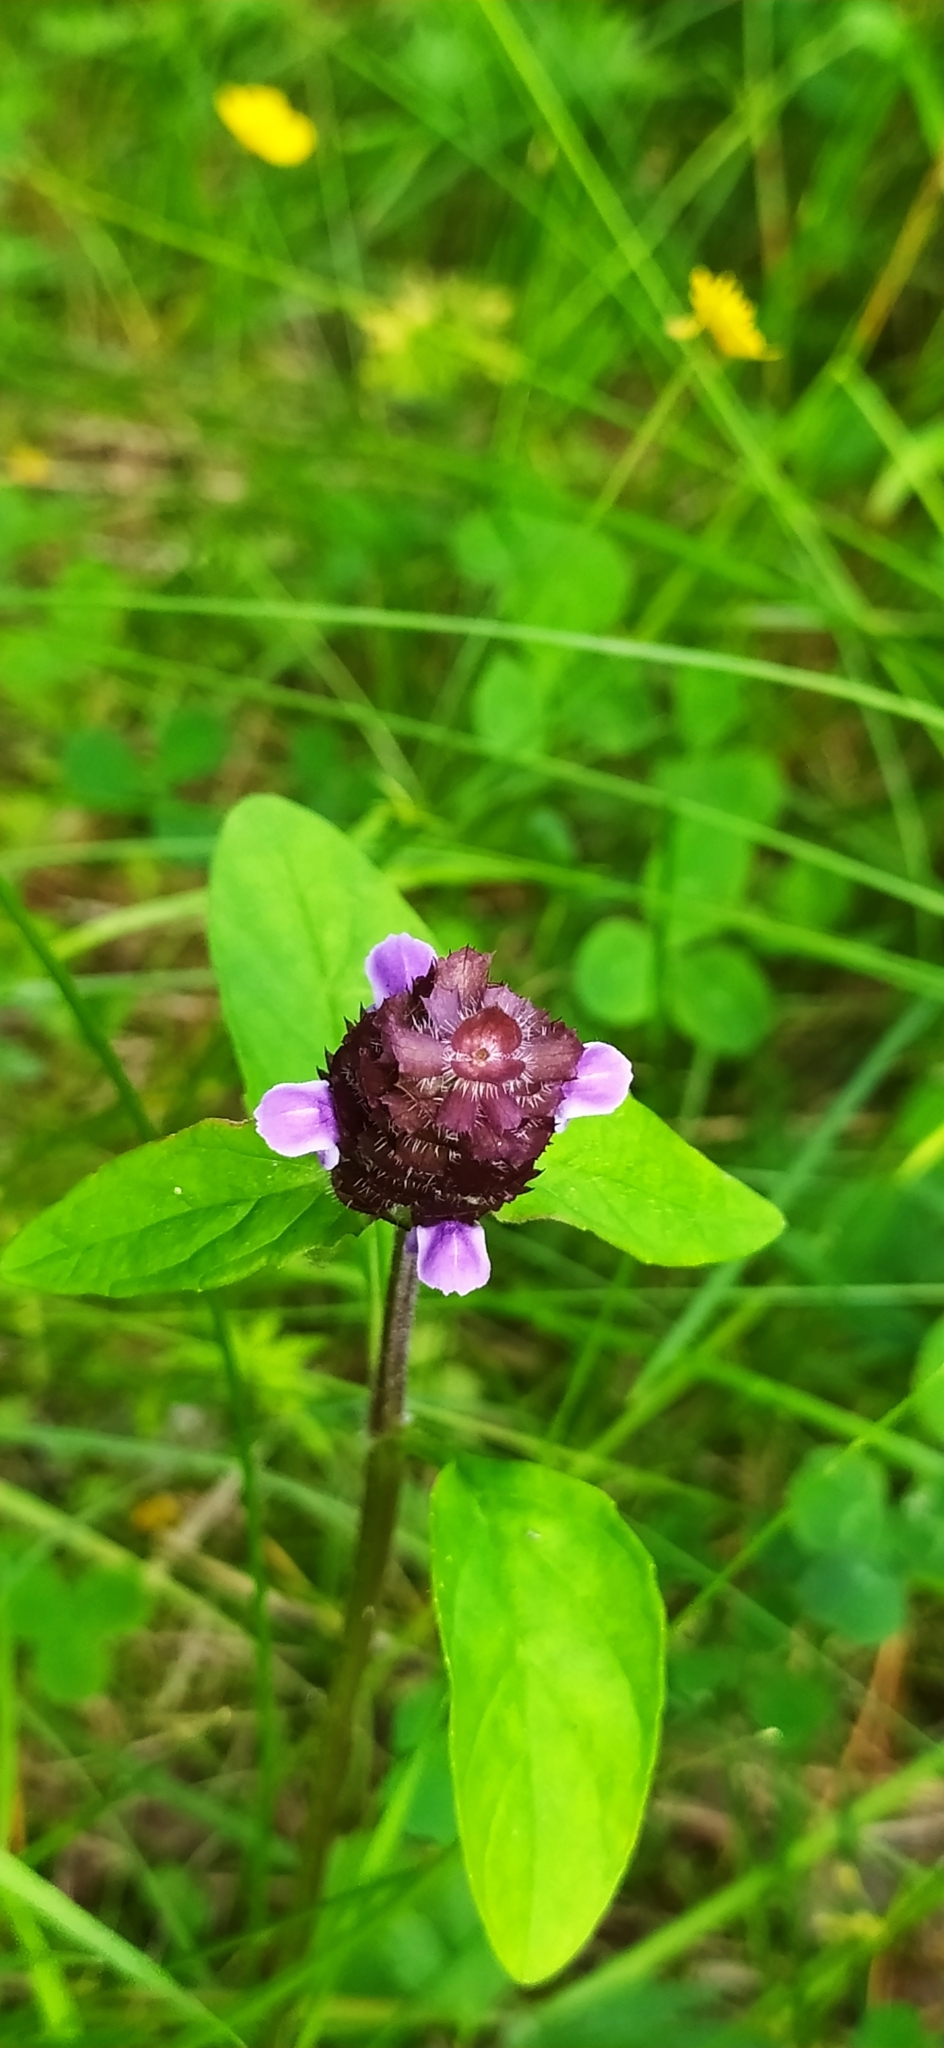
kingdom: Plantae
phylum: Tracheophyta
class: Magnoliopsida
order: Lamiales
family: Lamiaceae
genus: Prunella
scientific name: Prunella vulgaris
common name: Heal-all
